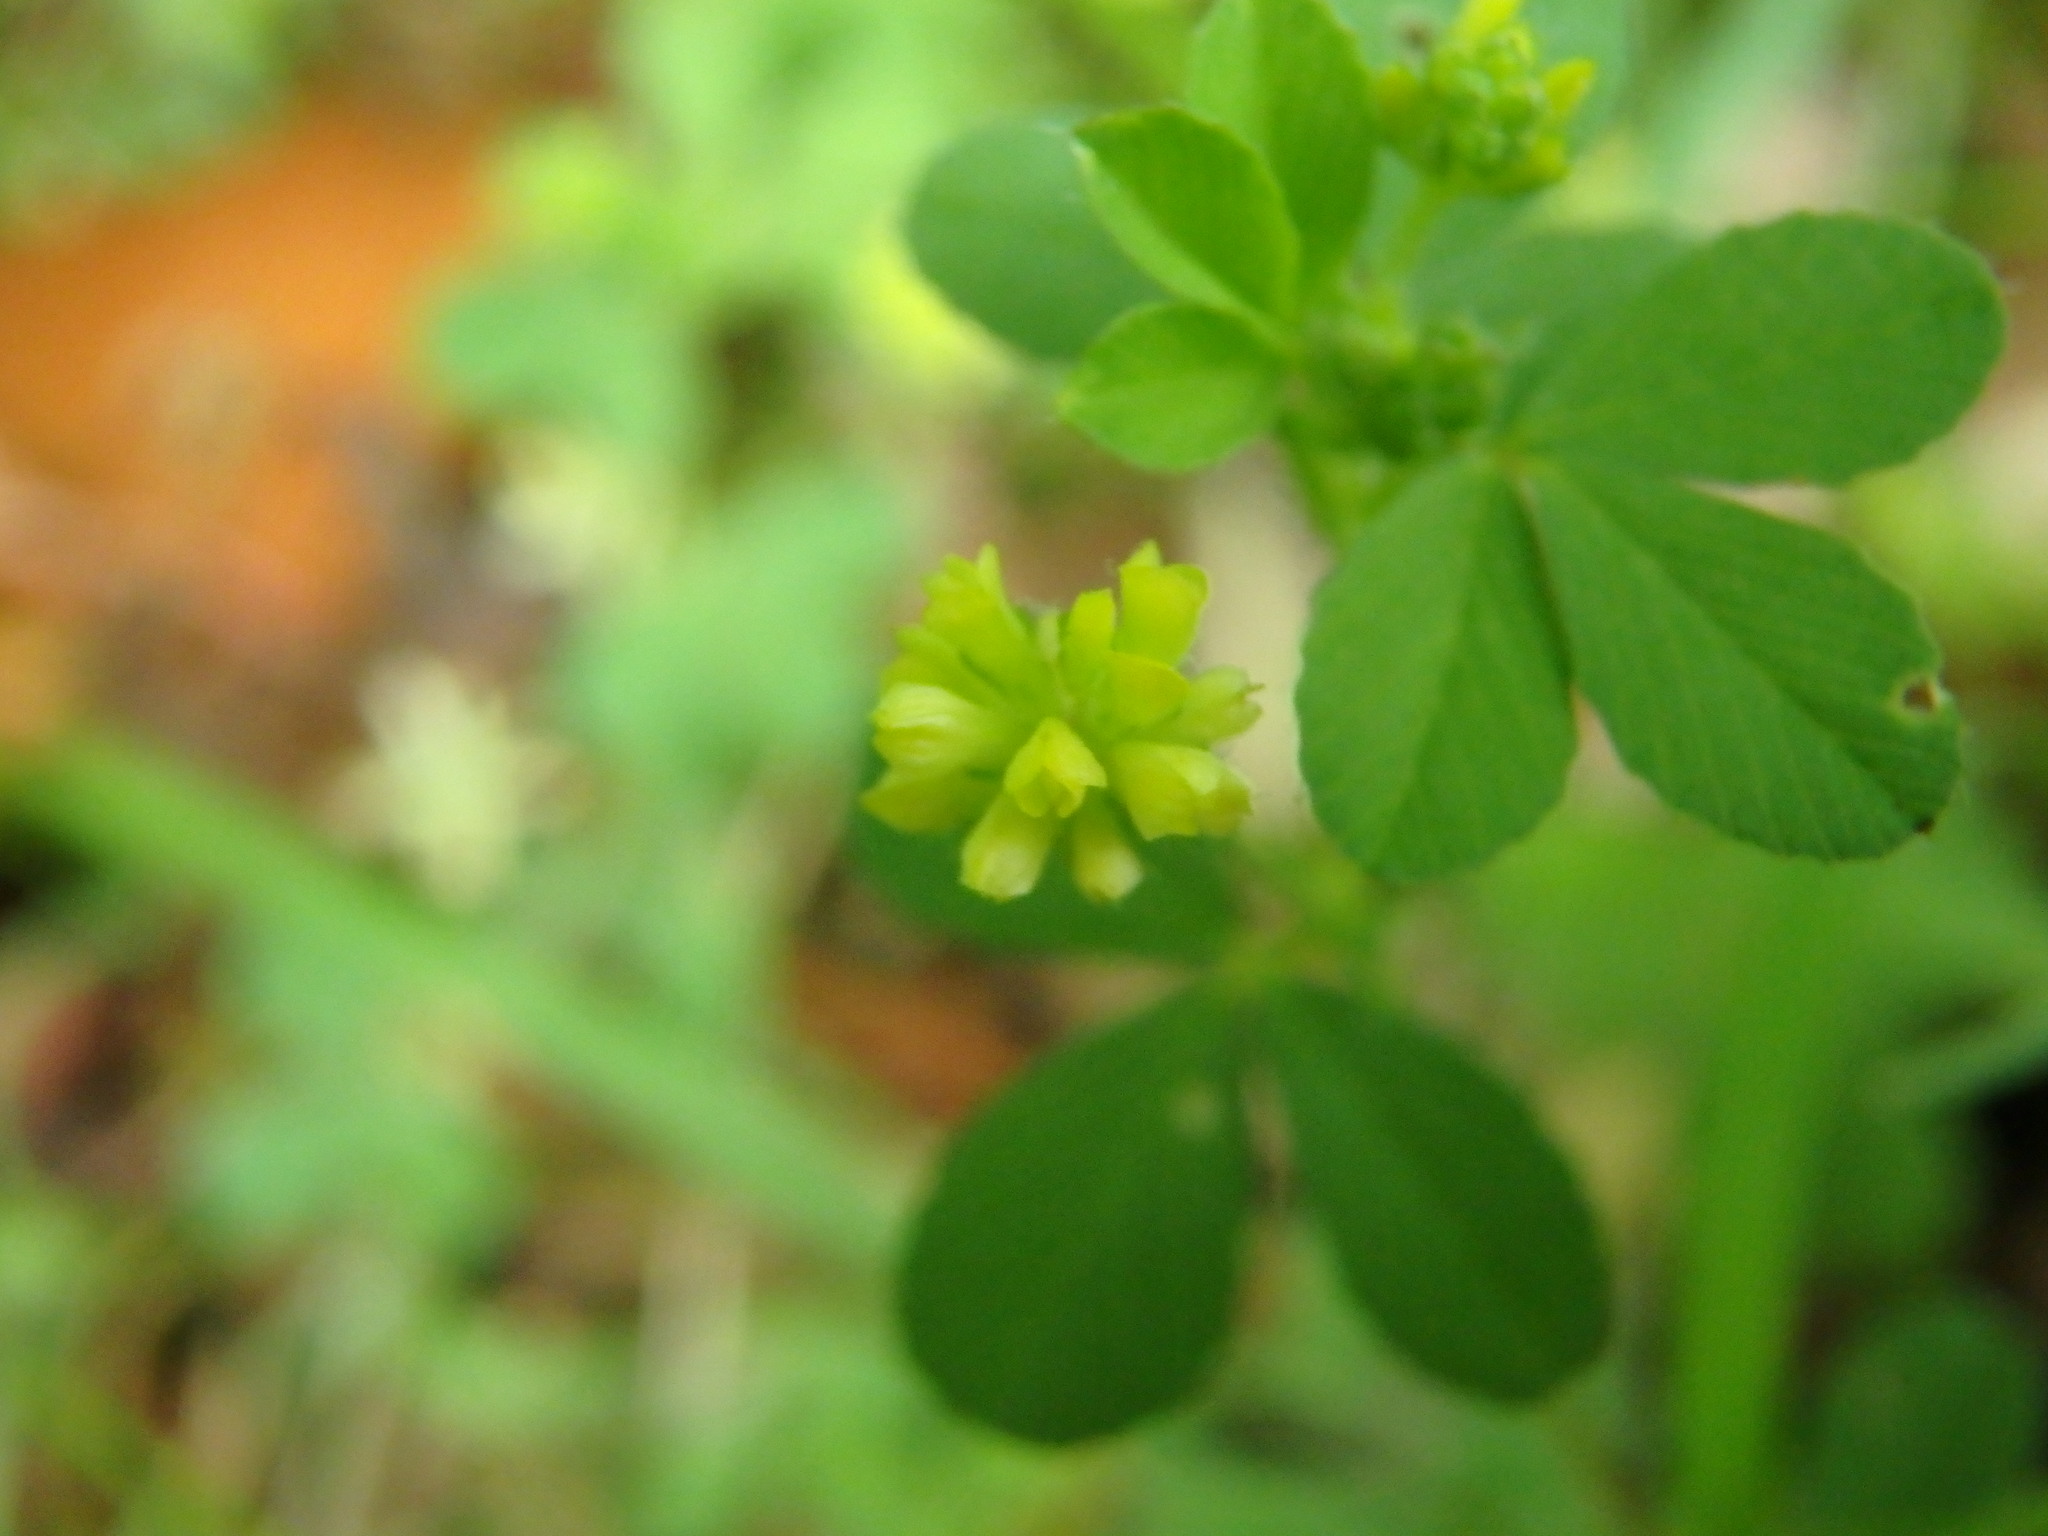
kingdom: Plantae
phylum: Tracheophyta
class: Magnoliopsida
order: Fabales
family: Fabaceae
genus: Trifolium
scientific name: Trifolium dubium
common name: Suckling clover
